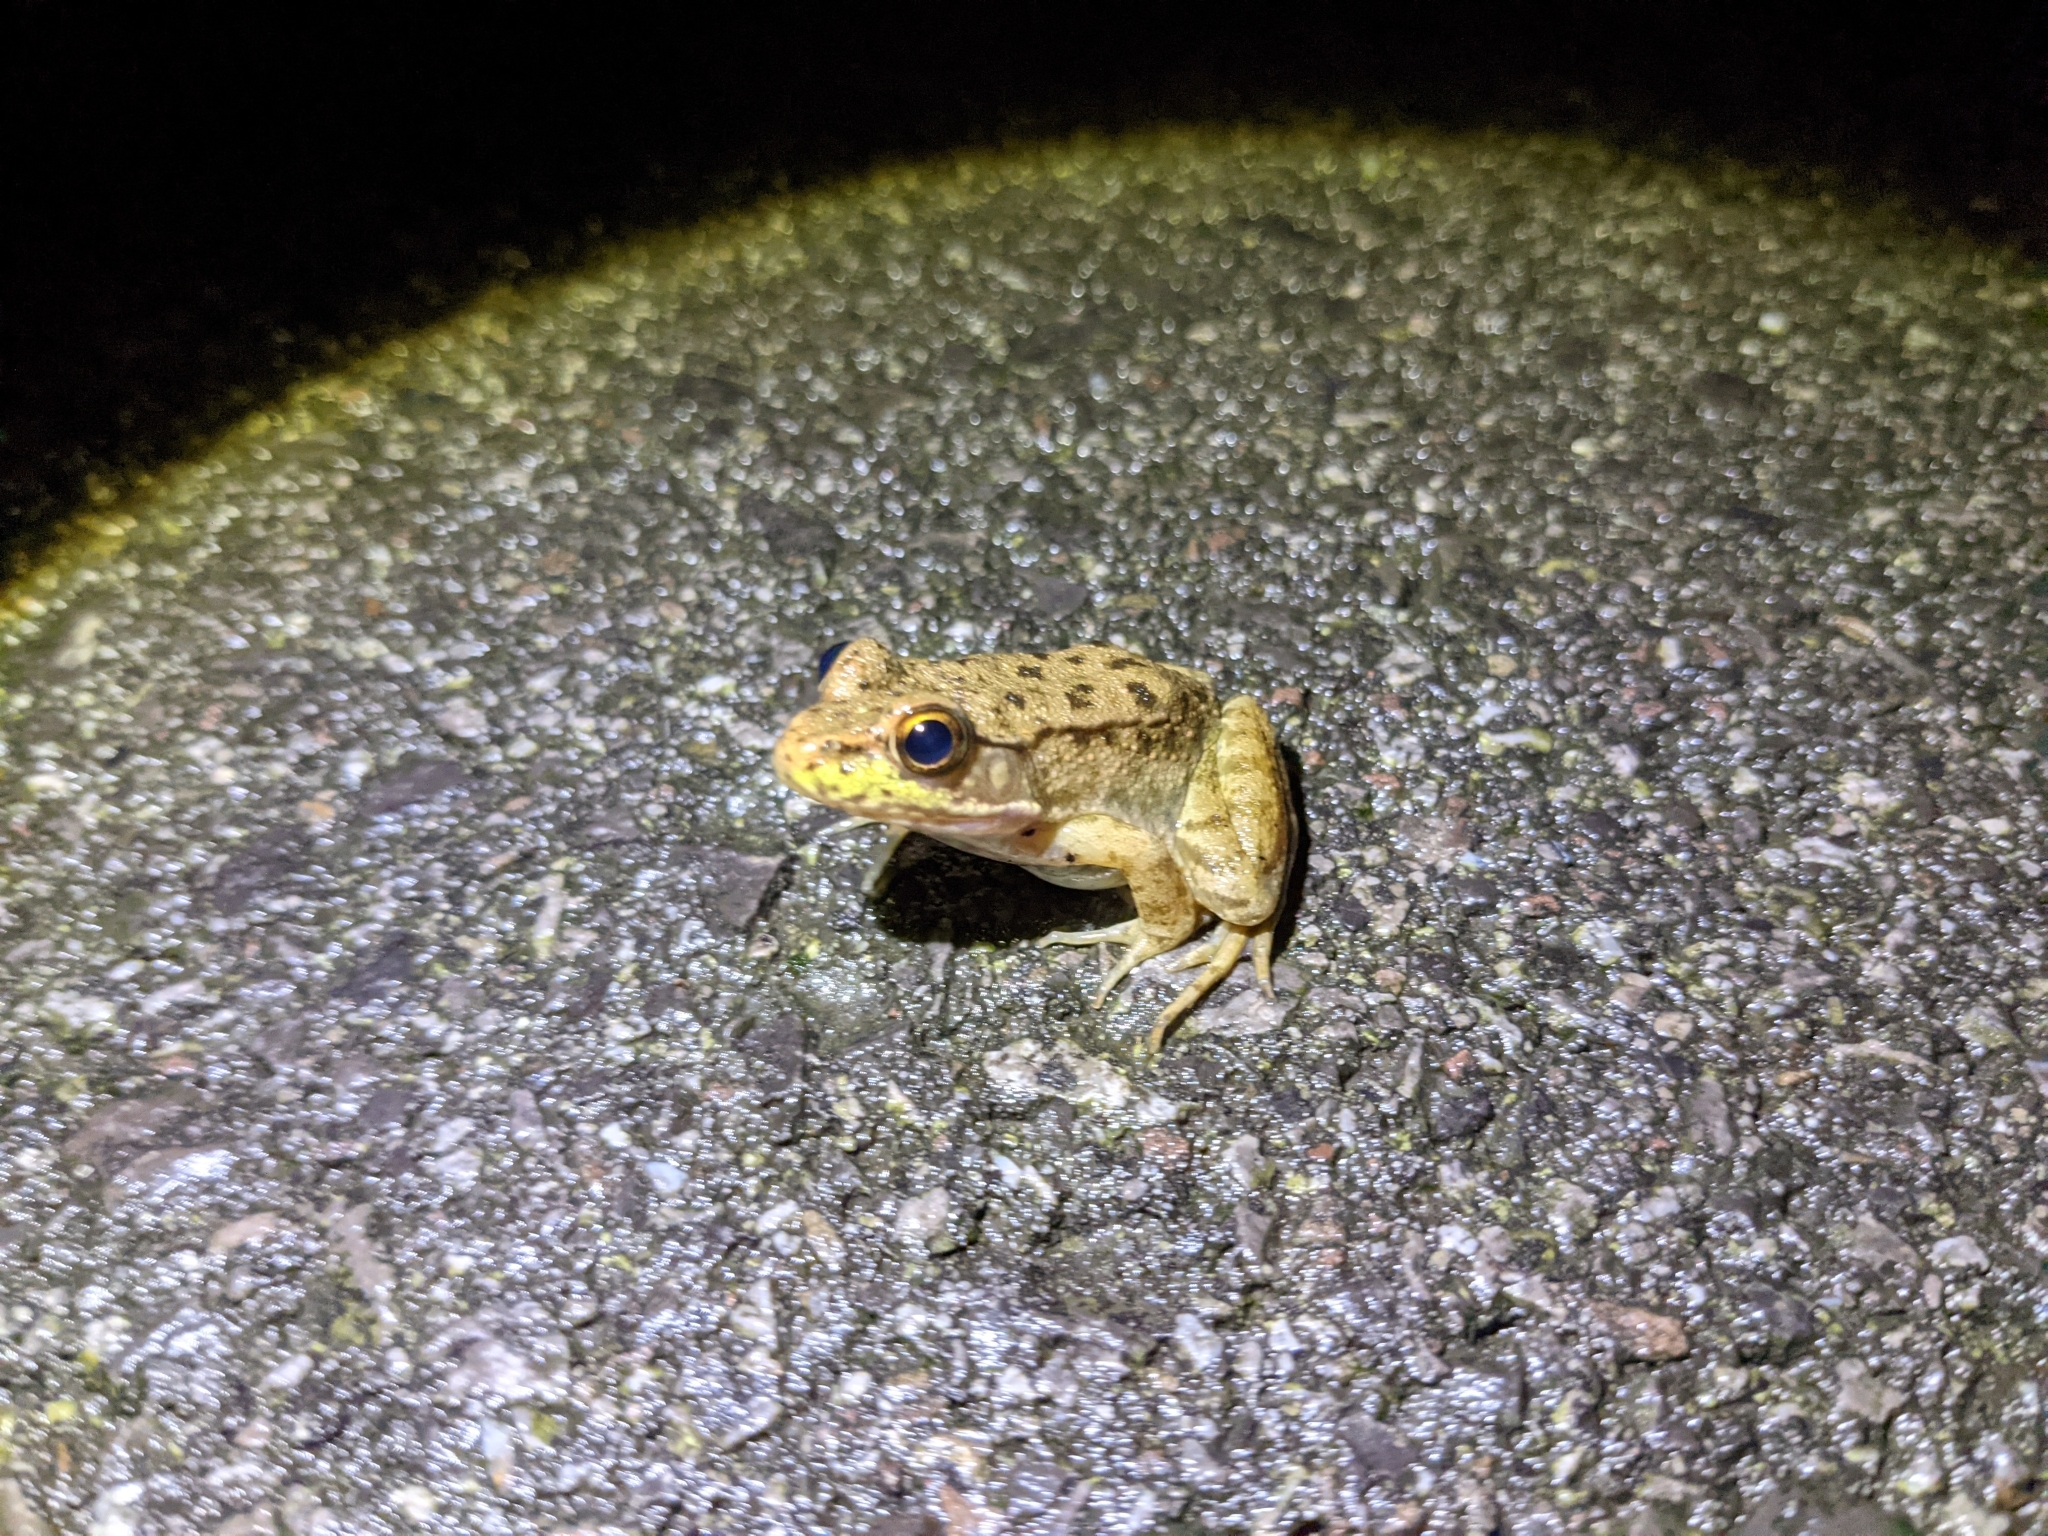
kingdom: Animalia
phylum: Chordata
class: Amphibia
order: Anura
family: Ranidae
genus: Lithobates
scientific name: Lithobates clamitans
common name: Green frog
